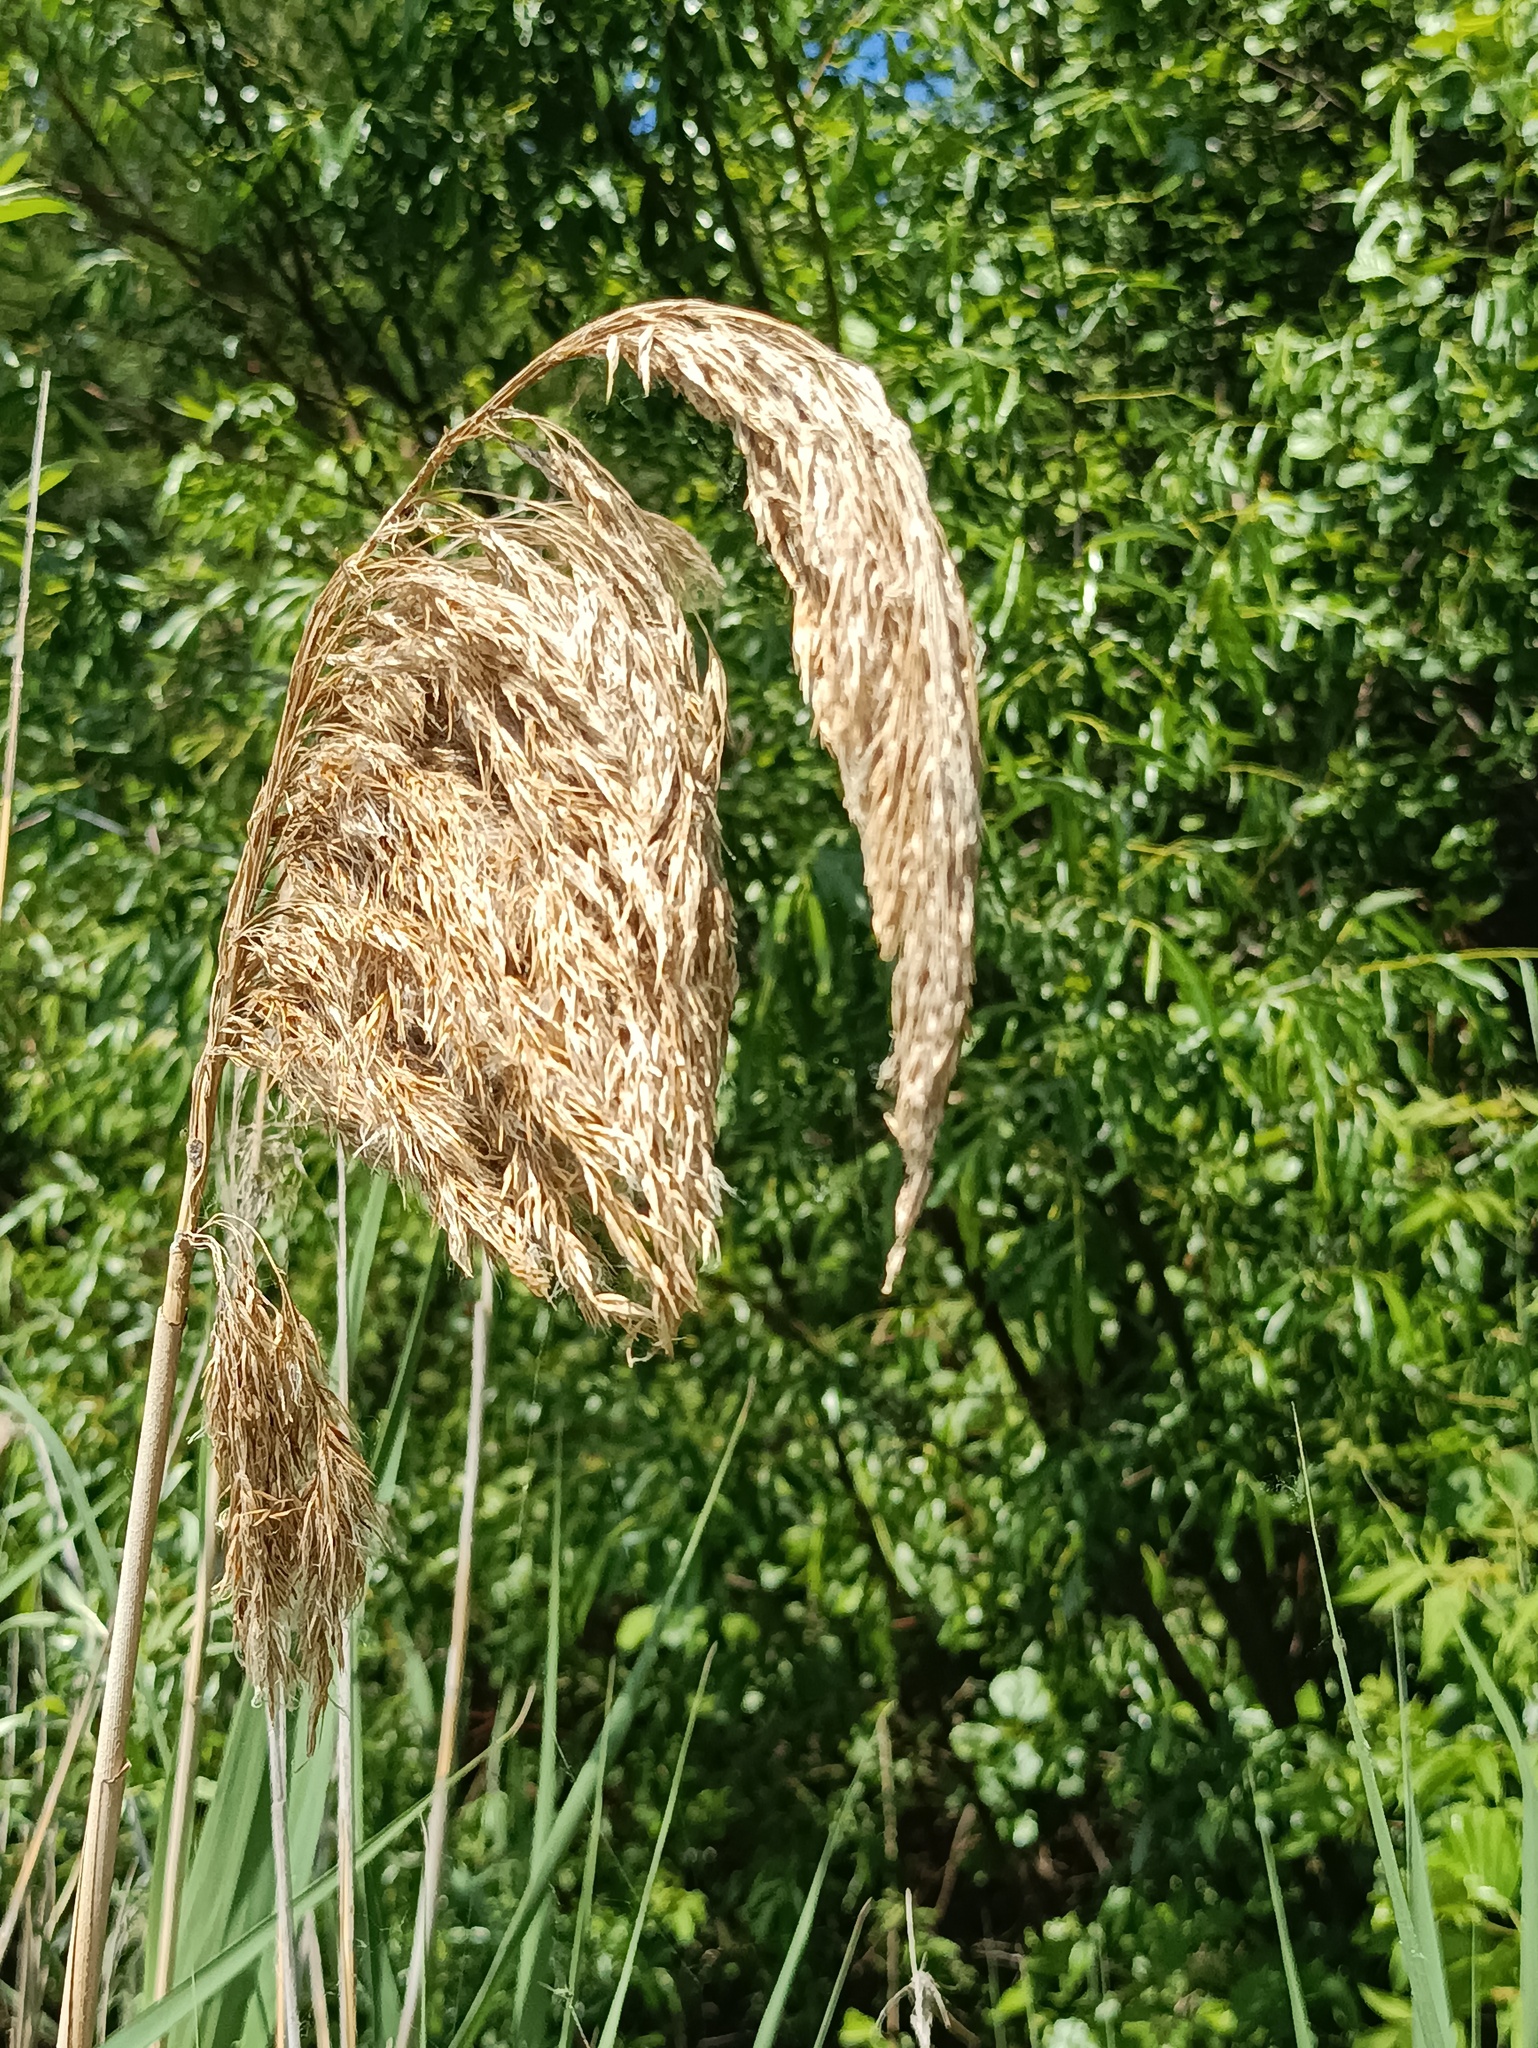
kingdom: Plantae
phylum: Tracheophyta
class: Liliopsida
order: Poales
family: Poaceae
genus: Phragmites
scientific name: Phragmites australis
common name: Common reed
